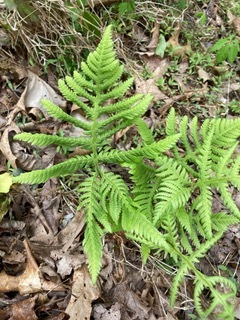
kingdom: Plantae
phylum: Tracheophyta
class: Polypodiopsida
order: Polypodiales
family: Thelypteridaceae
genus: Phegopteris
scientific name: Phegopteris hexagonoptera
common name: Broad beech fern
